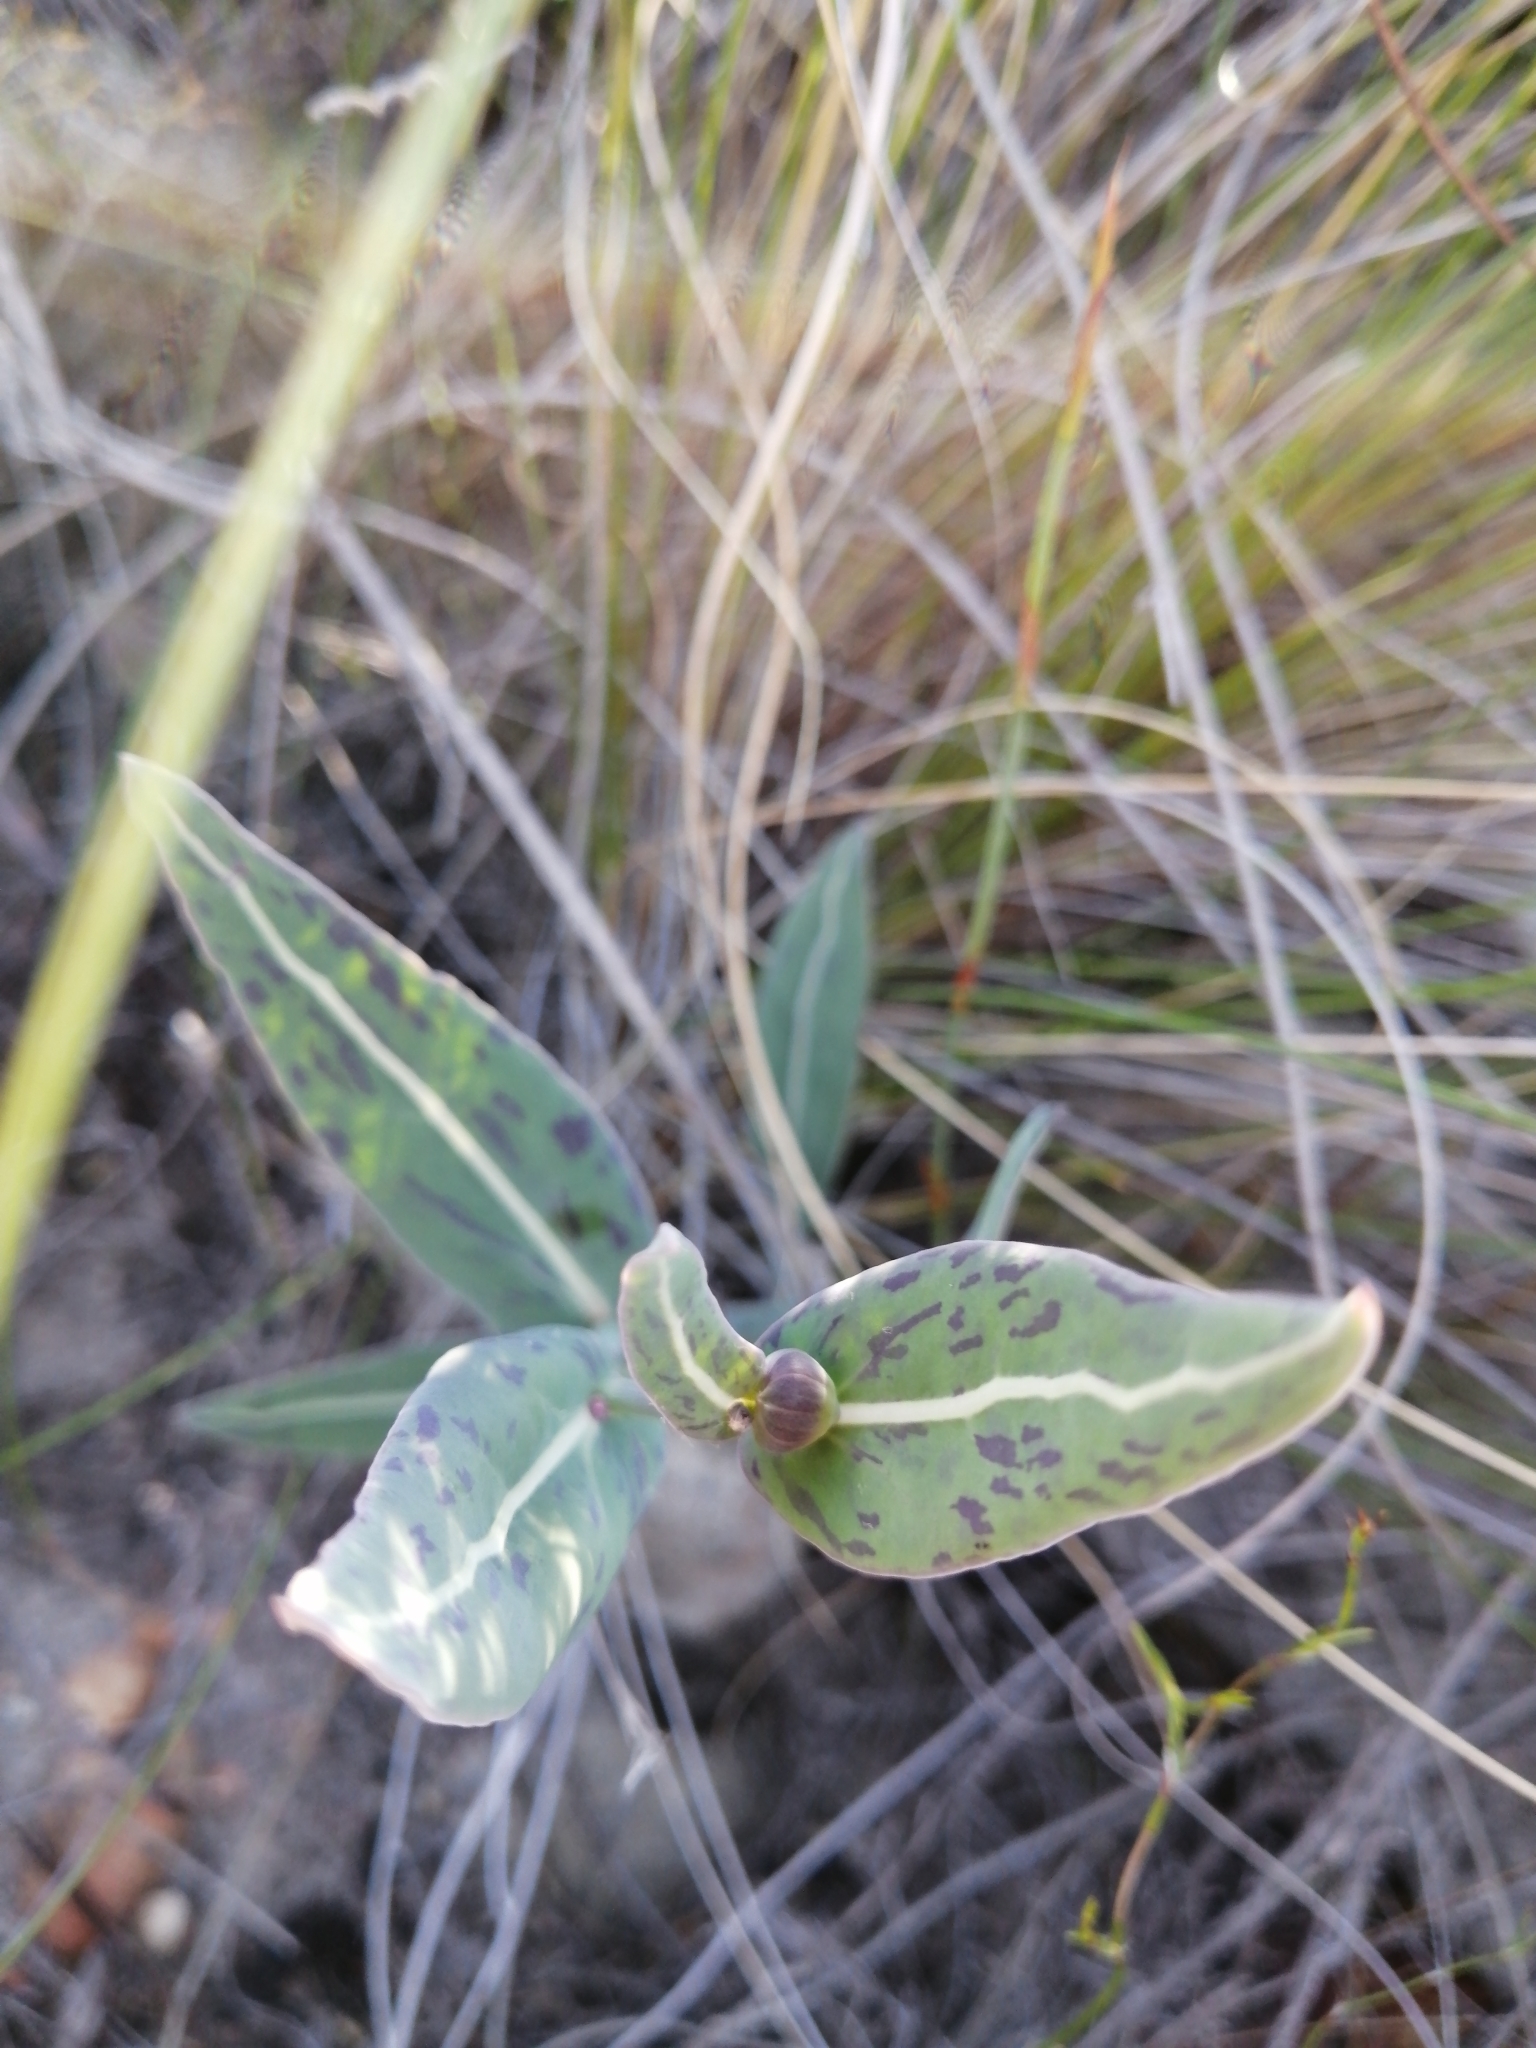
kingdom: Plantae
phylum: Tracheophyta
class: Magnoliopsida
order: Asterales
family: Asteraceae
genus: Othonna
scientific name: Othonna gymnodiscus
